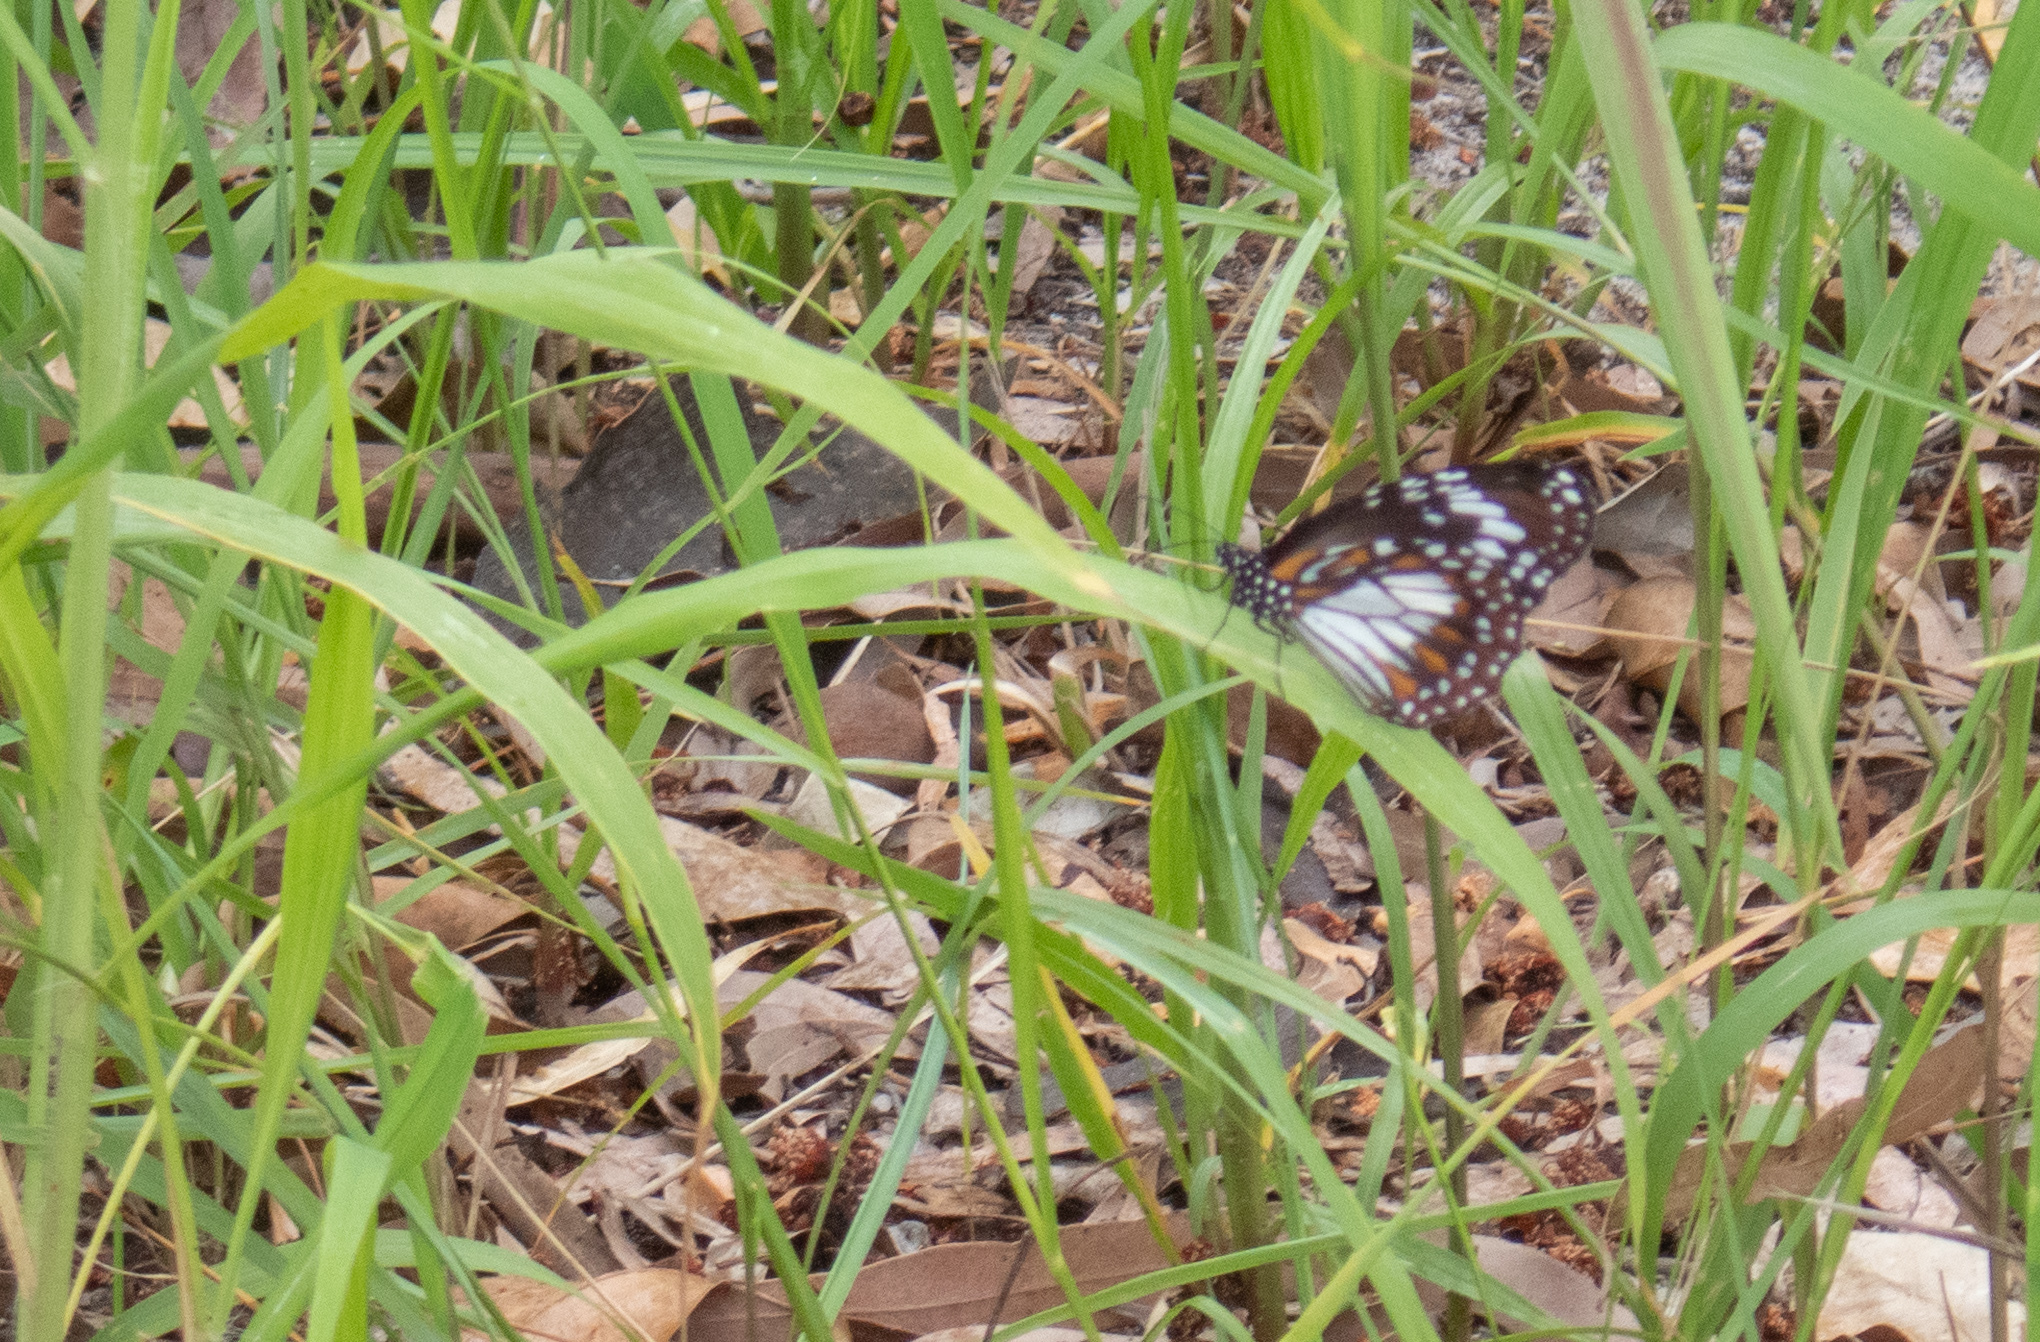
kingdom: Animalia
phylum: Arthropoda
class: Insecta
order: Lepidoptera
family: Nymphalidae
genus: Danaus
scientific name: Danaus affinis
